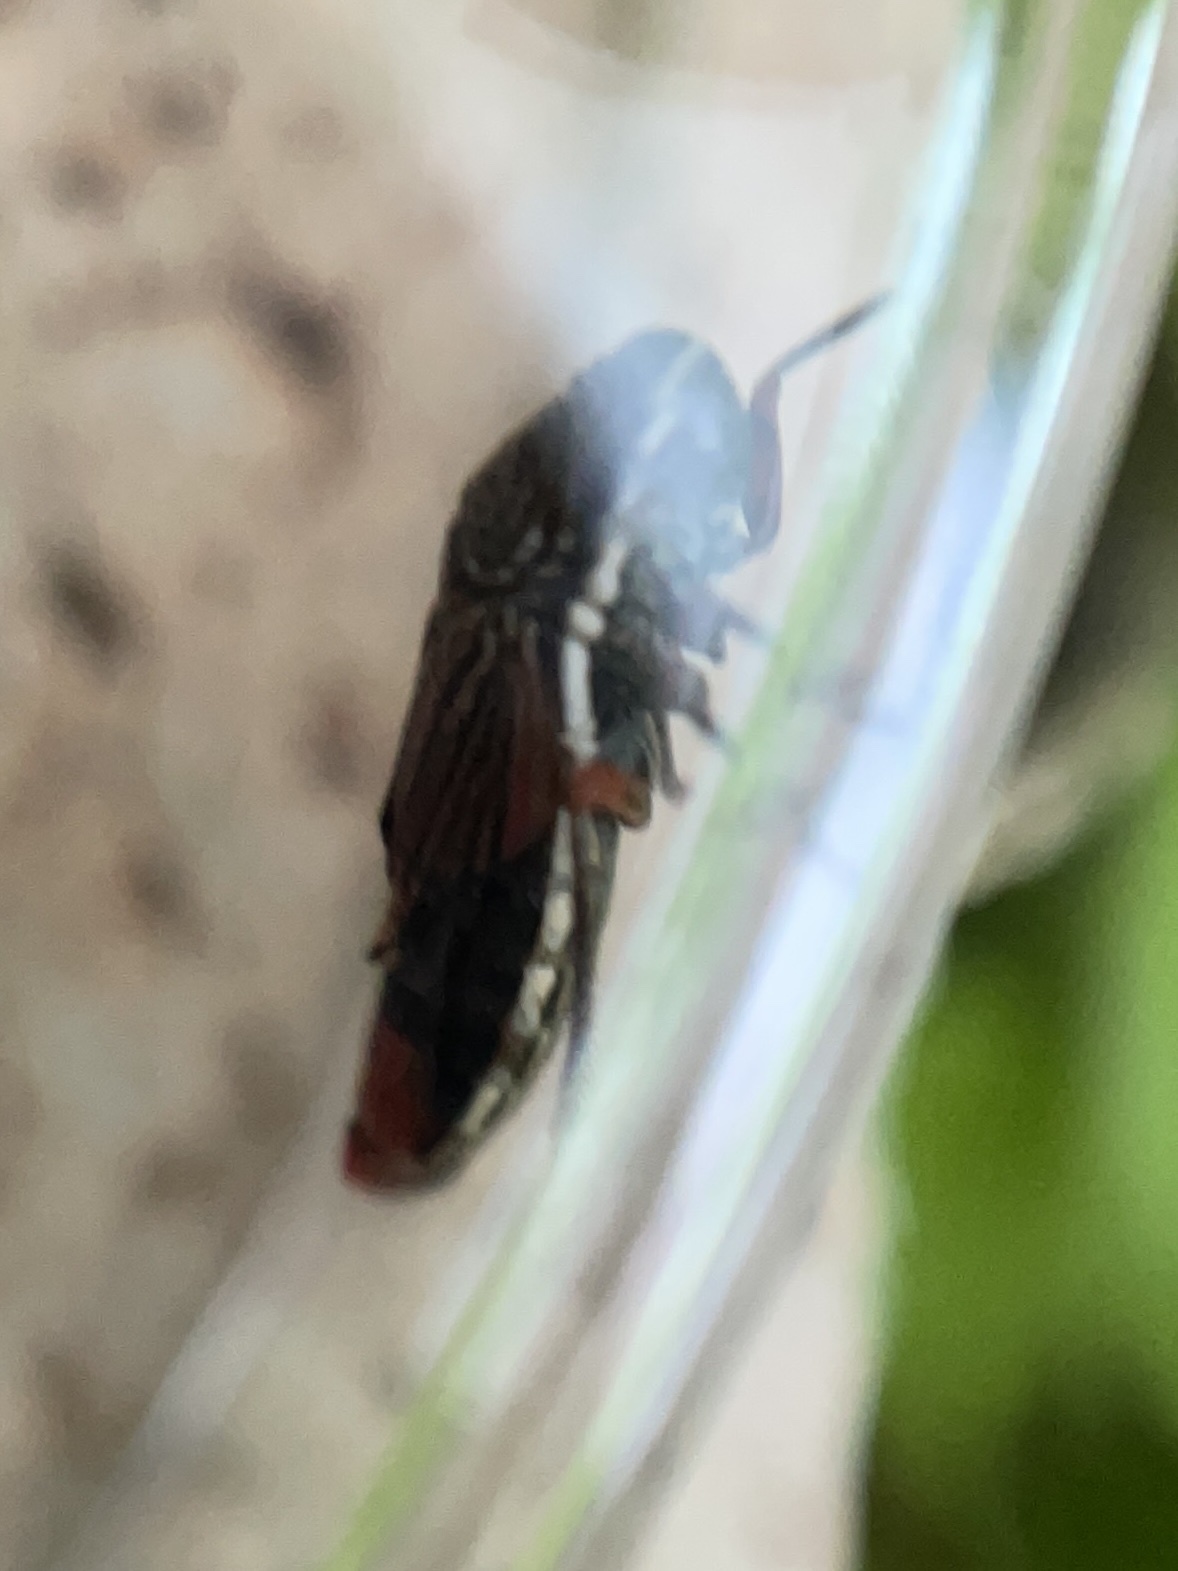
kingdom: Animalia
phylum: Arthropoda
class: Insecta
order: Hemiptera
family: Cicadellidae
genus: Cuerna
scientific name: Cuerna costalis
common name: Lateral-lined sharpshooter
